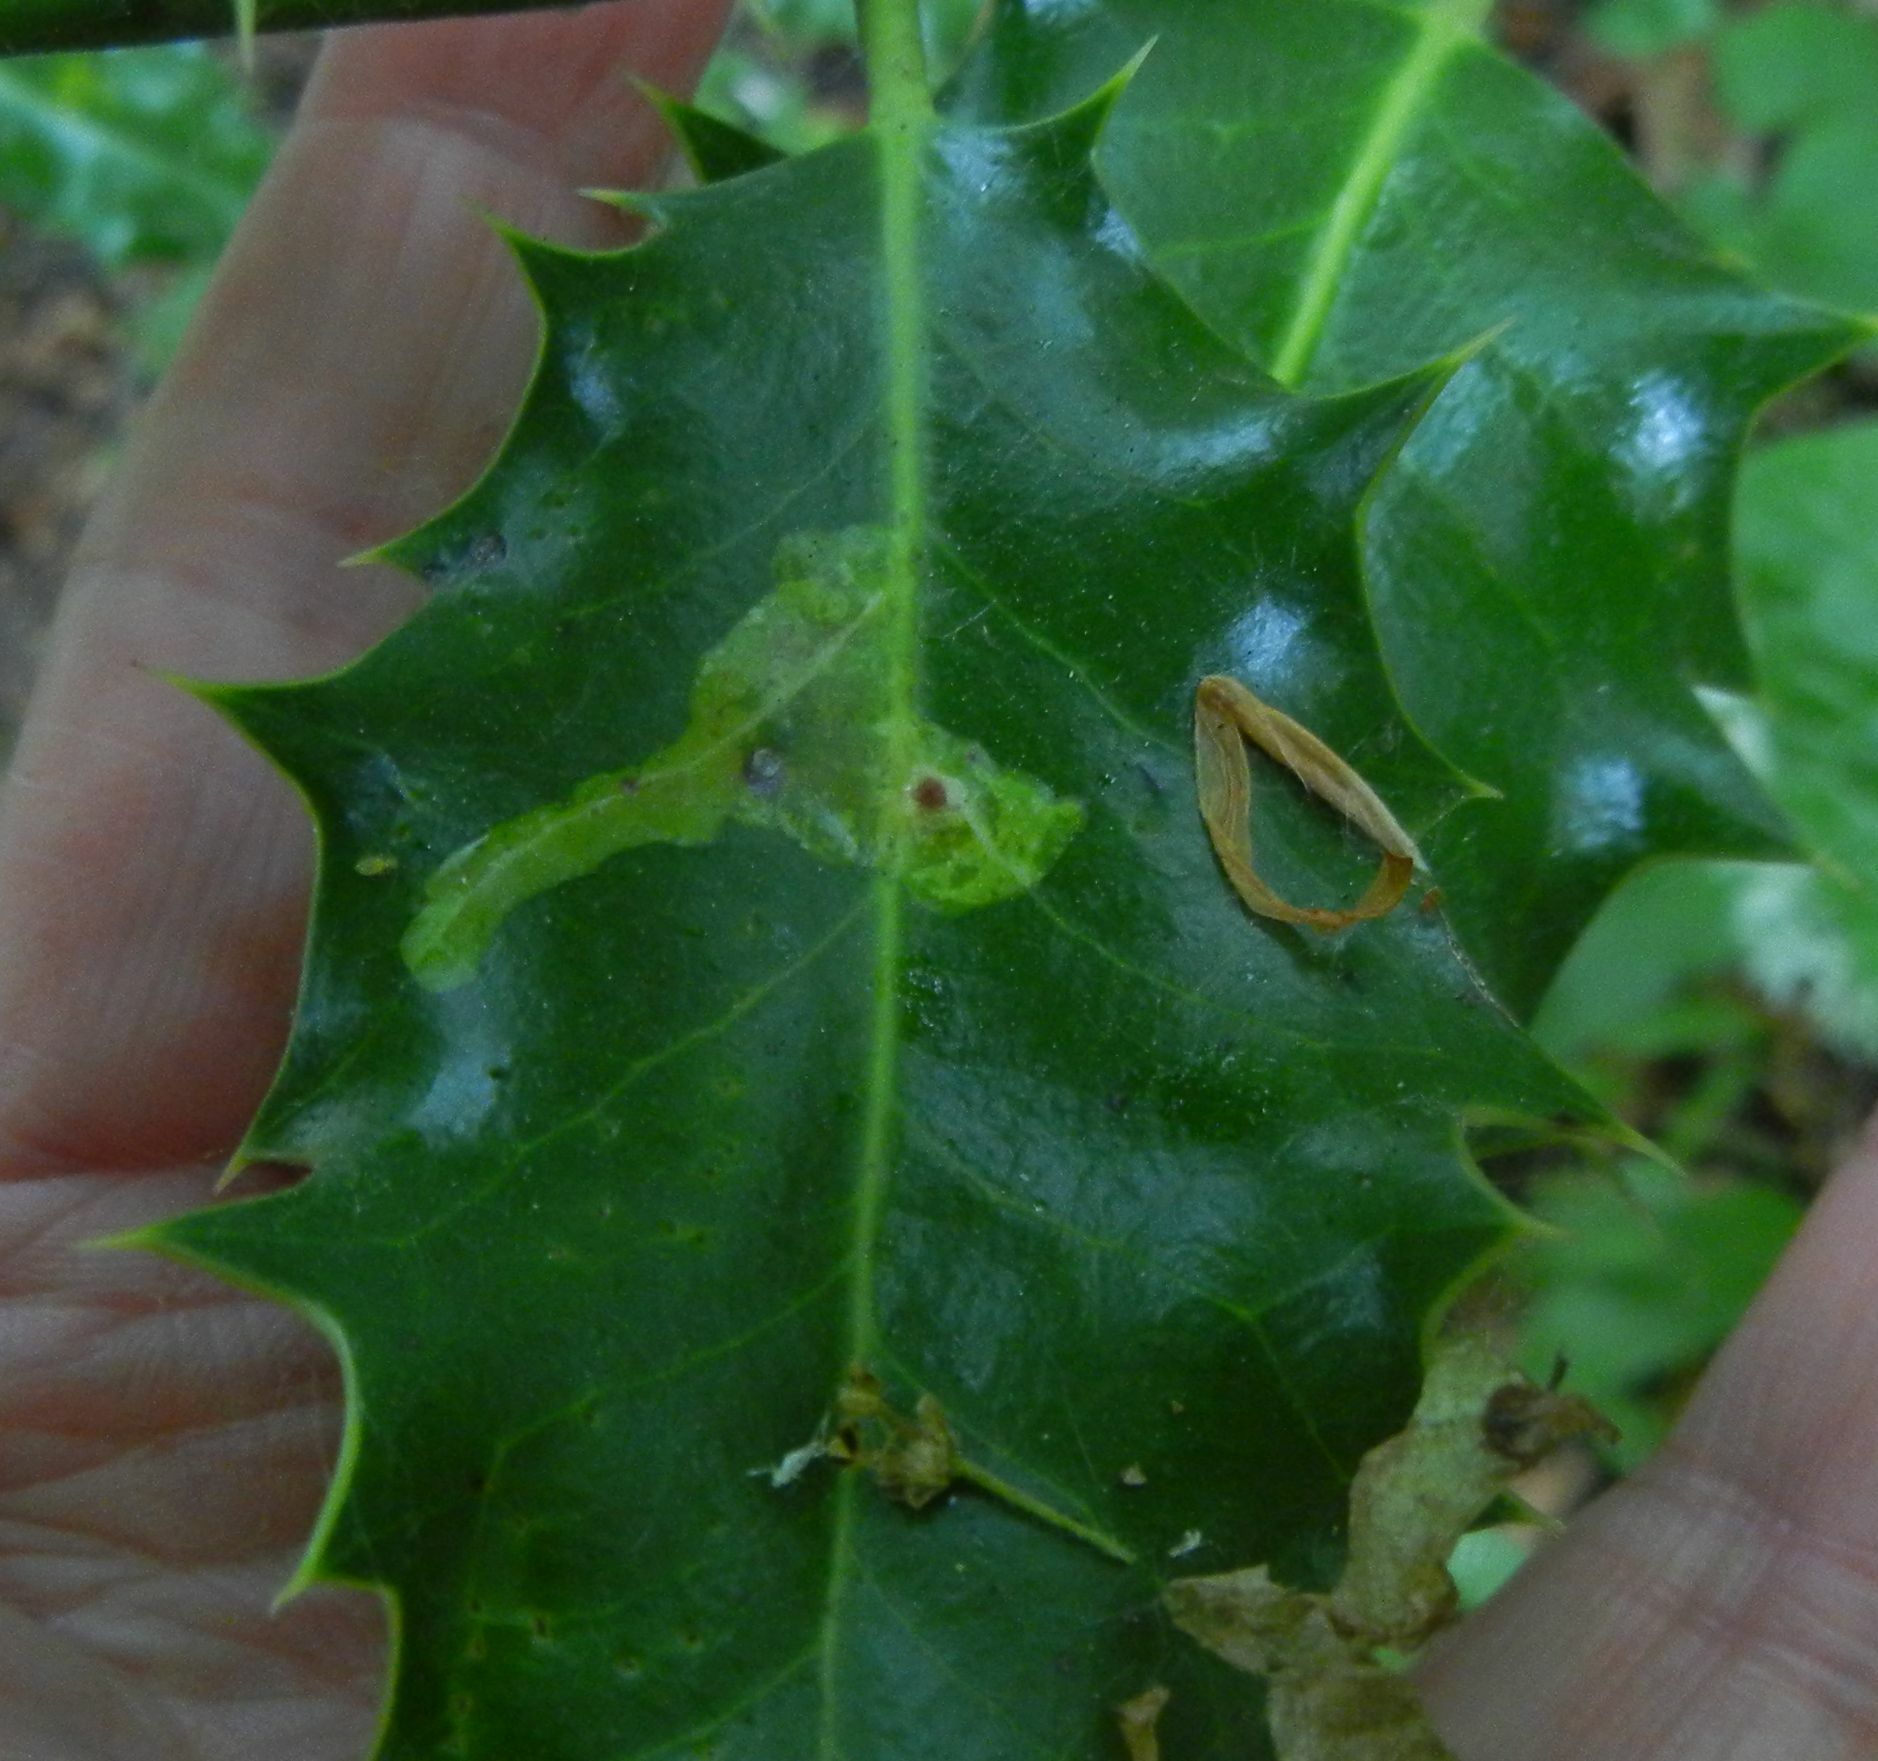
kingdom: Animalia
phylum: Arthropoda
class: Insecta
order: Diptera
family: Agromyzidae
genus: Phytomyza
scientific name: Phytomyza ilicis
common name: Holly leafminer
